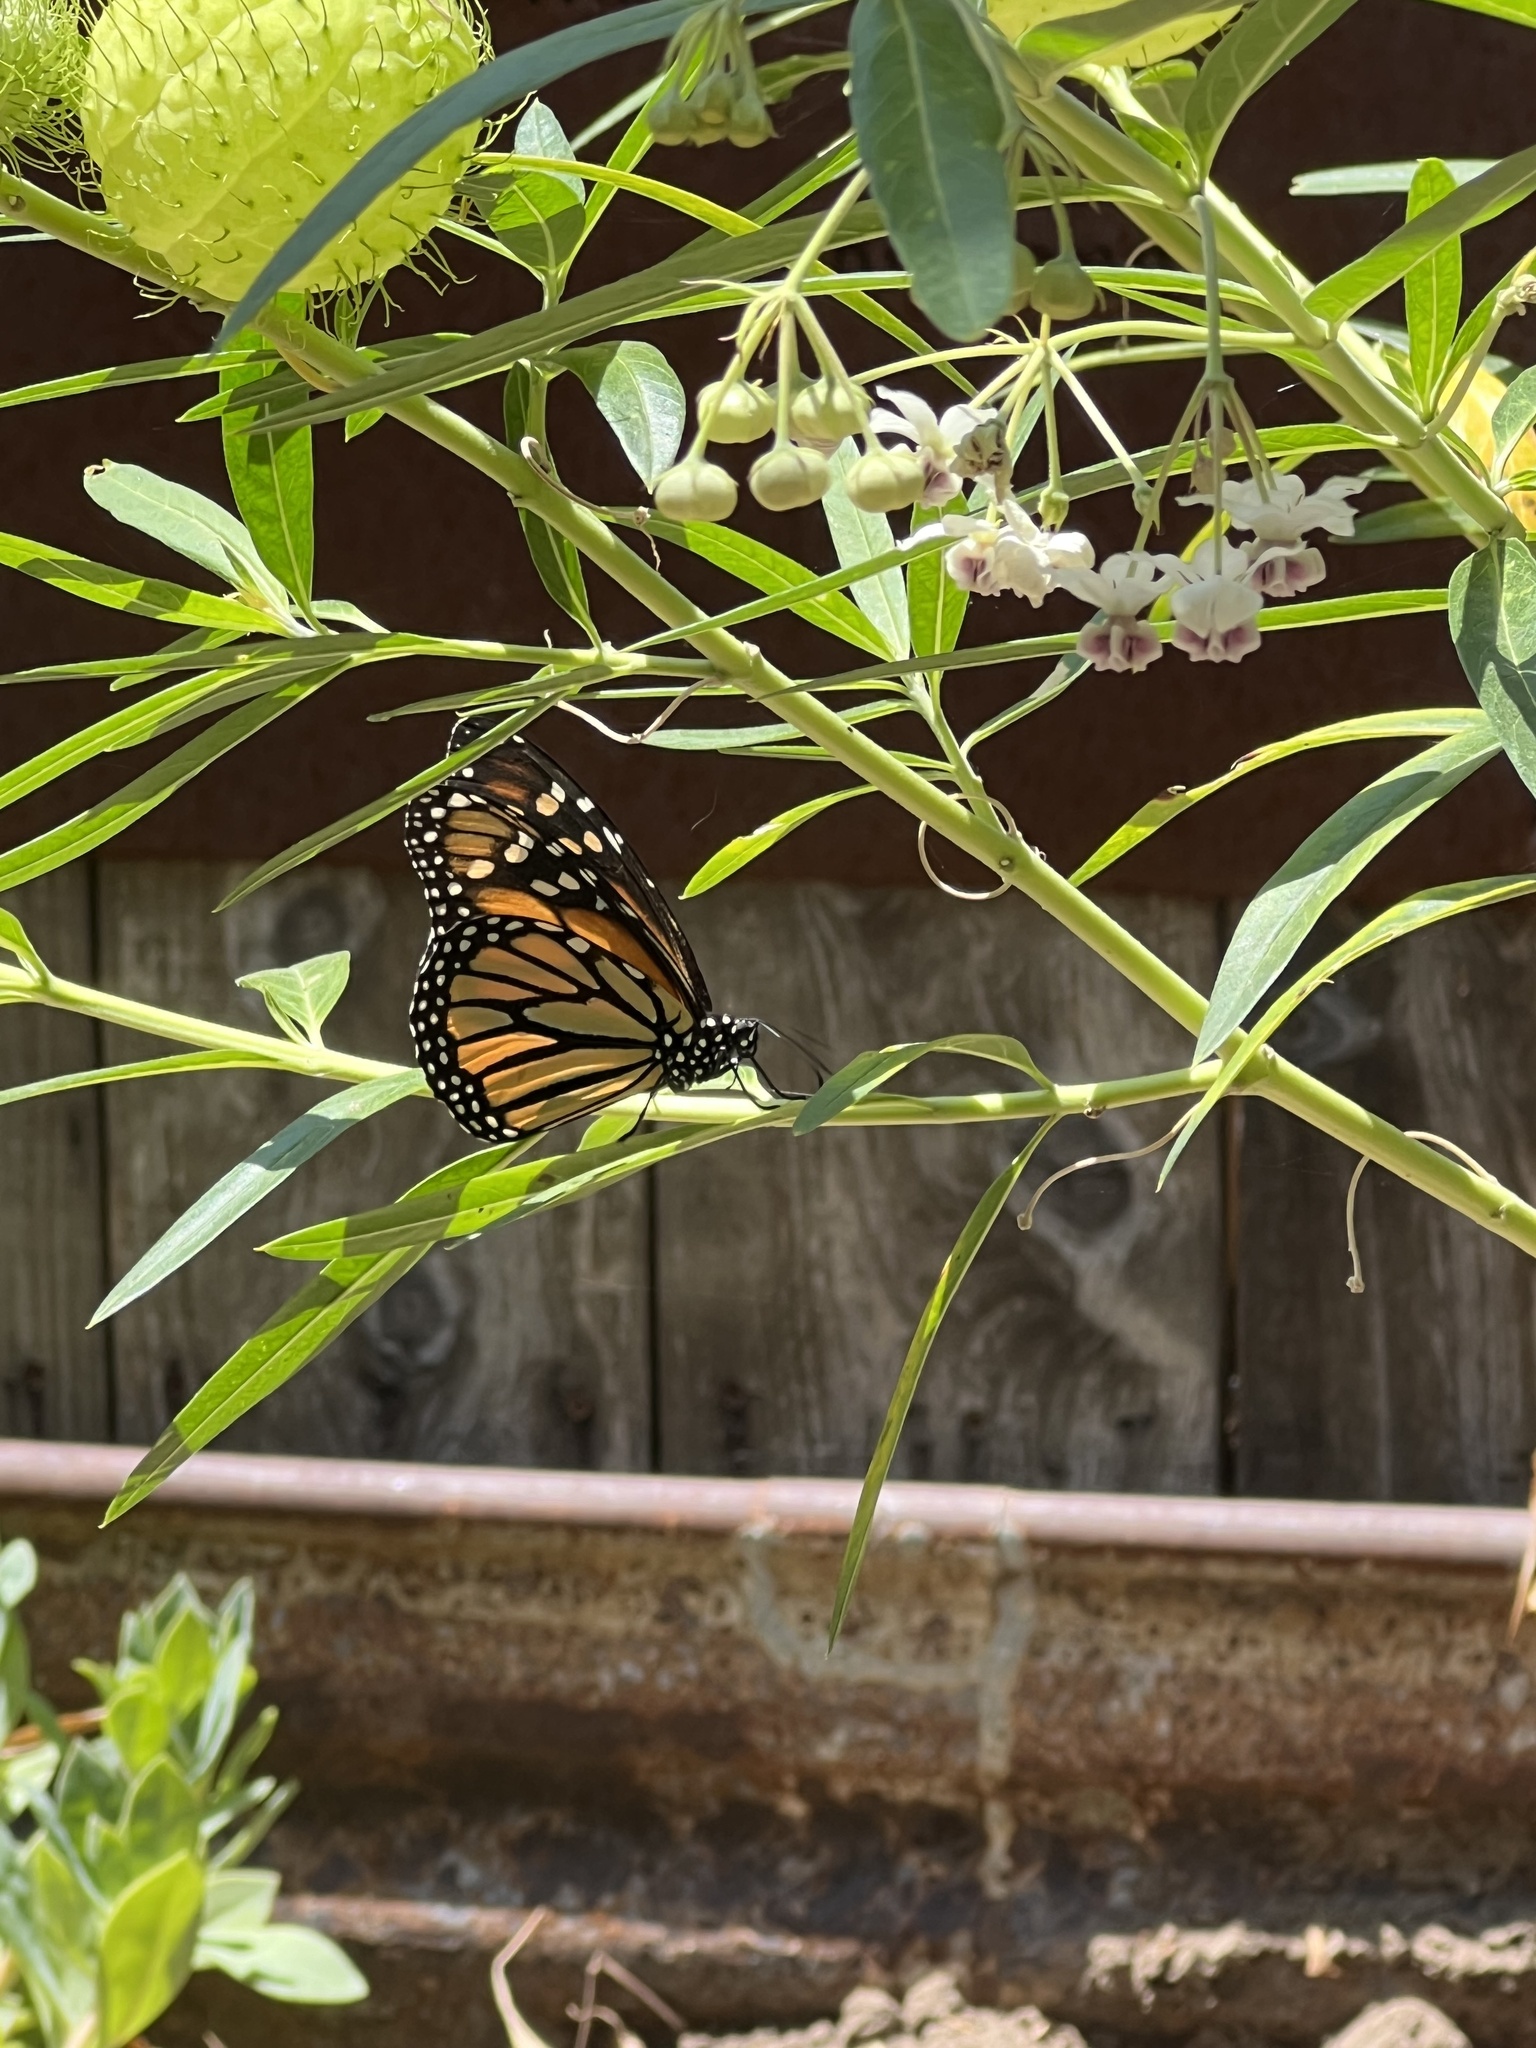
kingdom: Animalia
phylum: Arthropoda
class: Insecta
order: Lepidoptera
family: Nymphalidae
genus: Danaus
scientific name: Danaus plexippus
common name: Monarch
